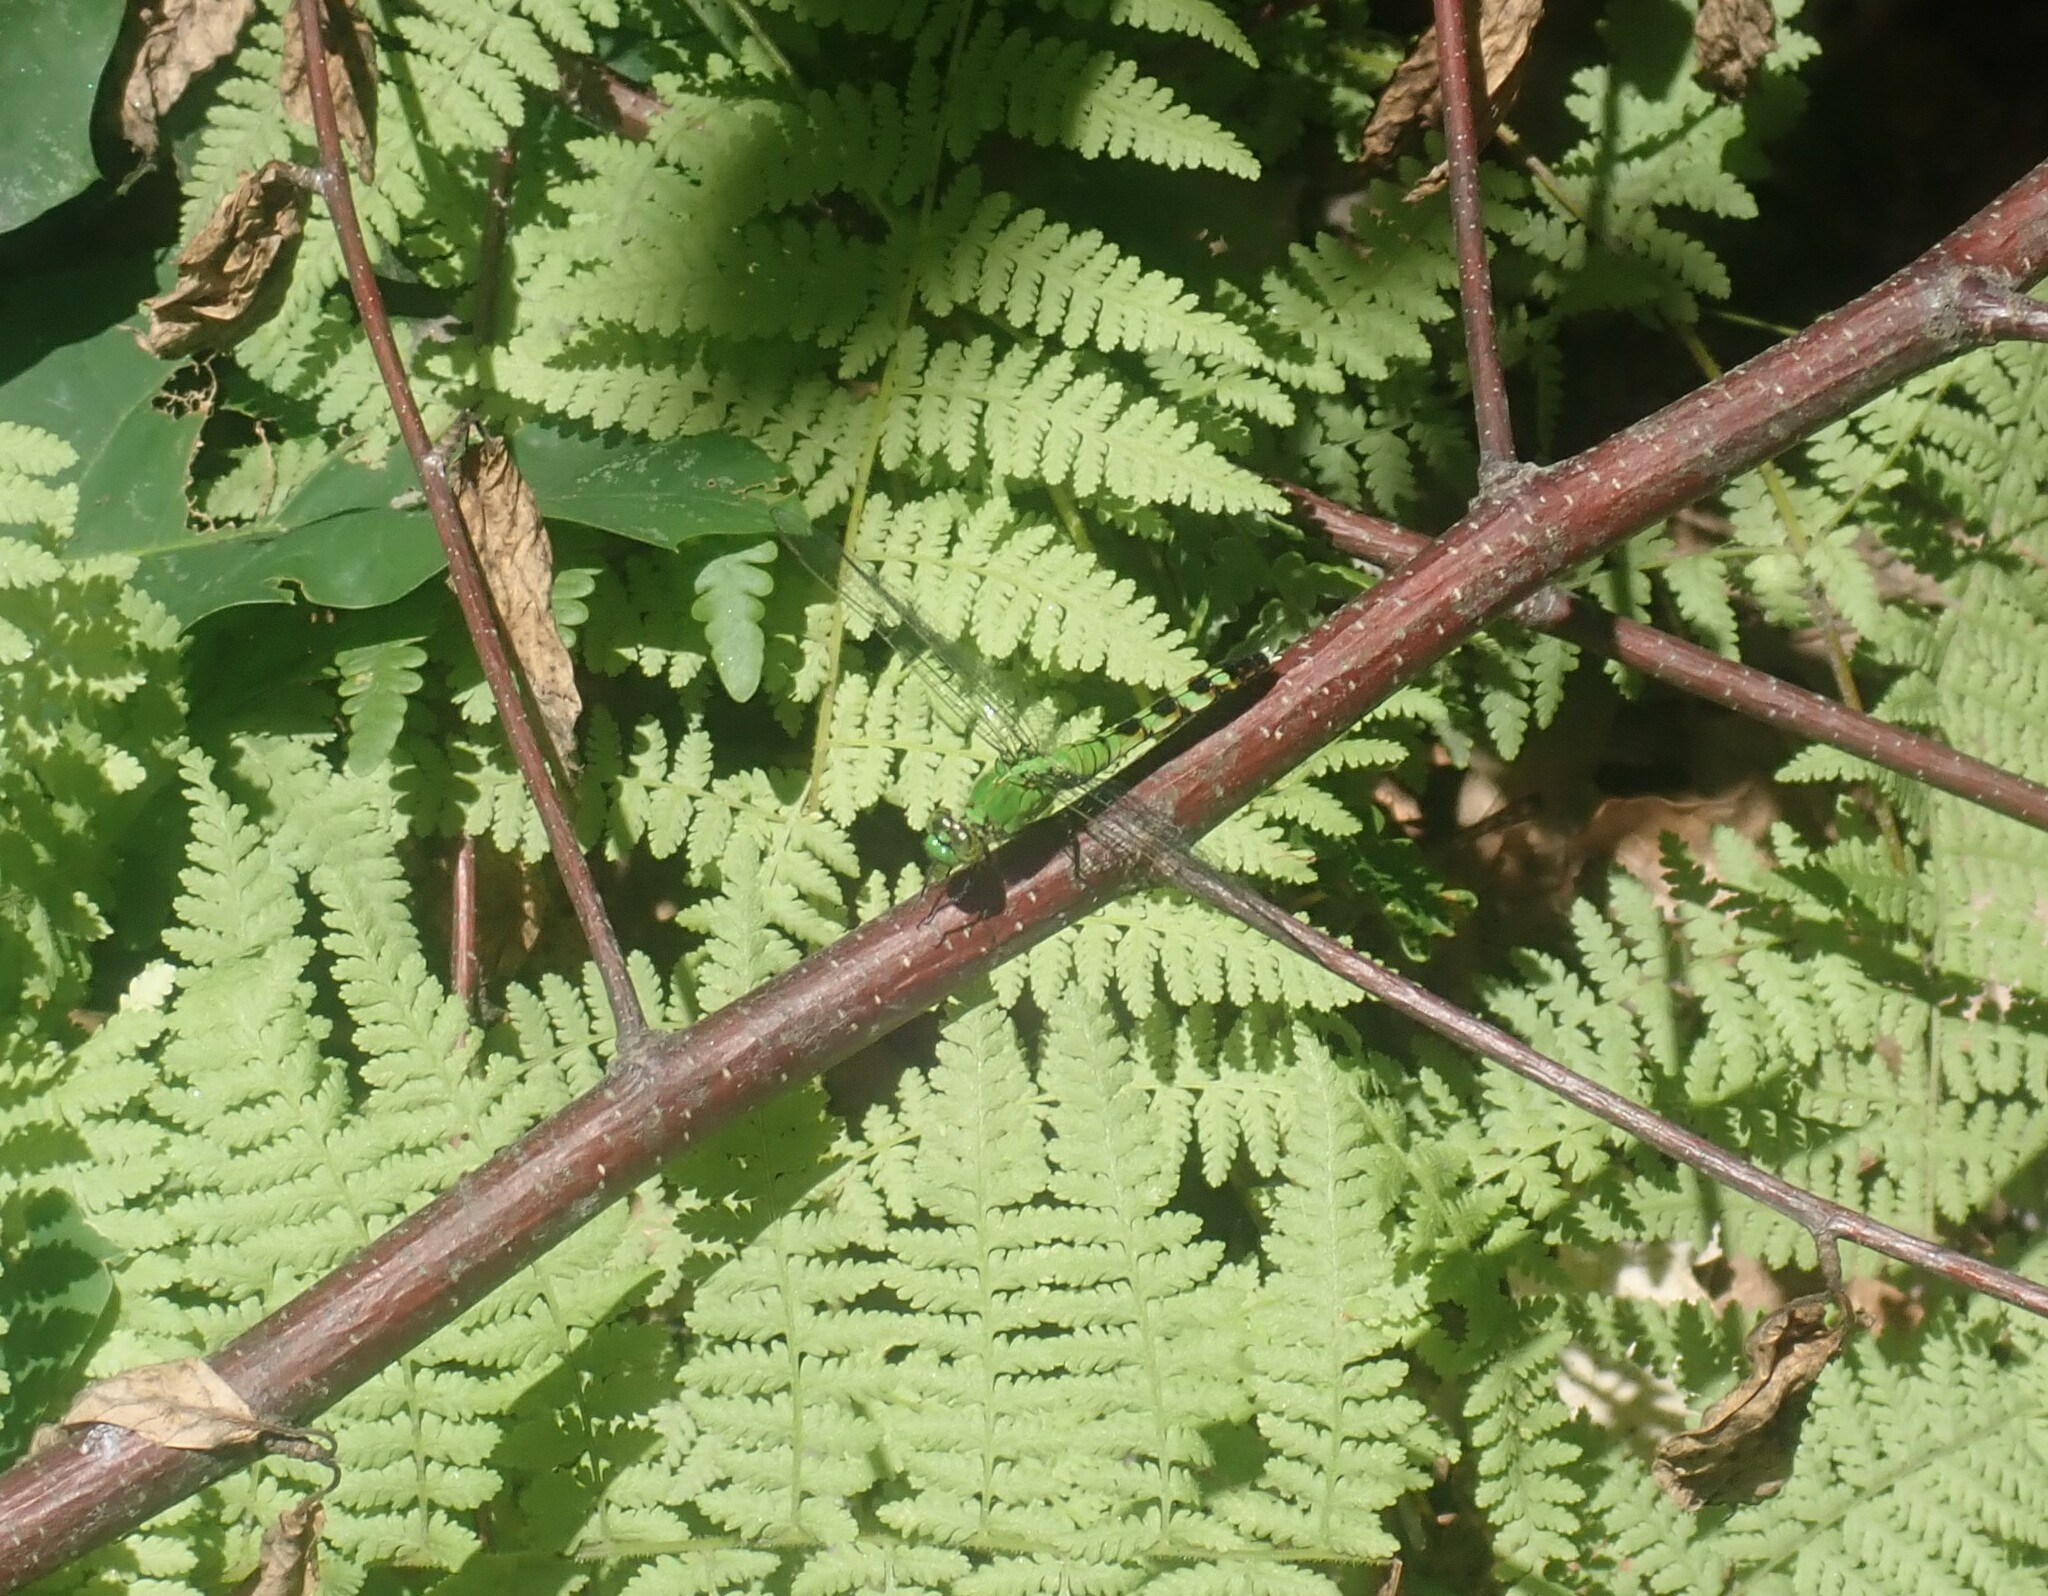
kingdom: Animalia
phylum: Arthropoda
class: Insecta
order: Odonata
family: Libellulidae
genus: Erythemis
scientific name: Erythemis simplicicollis
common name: Eastern pondhawk
